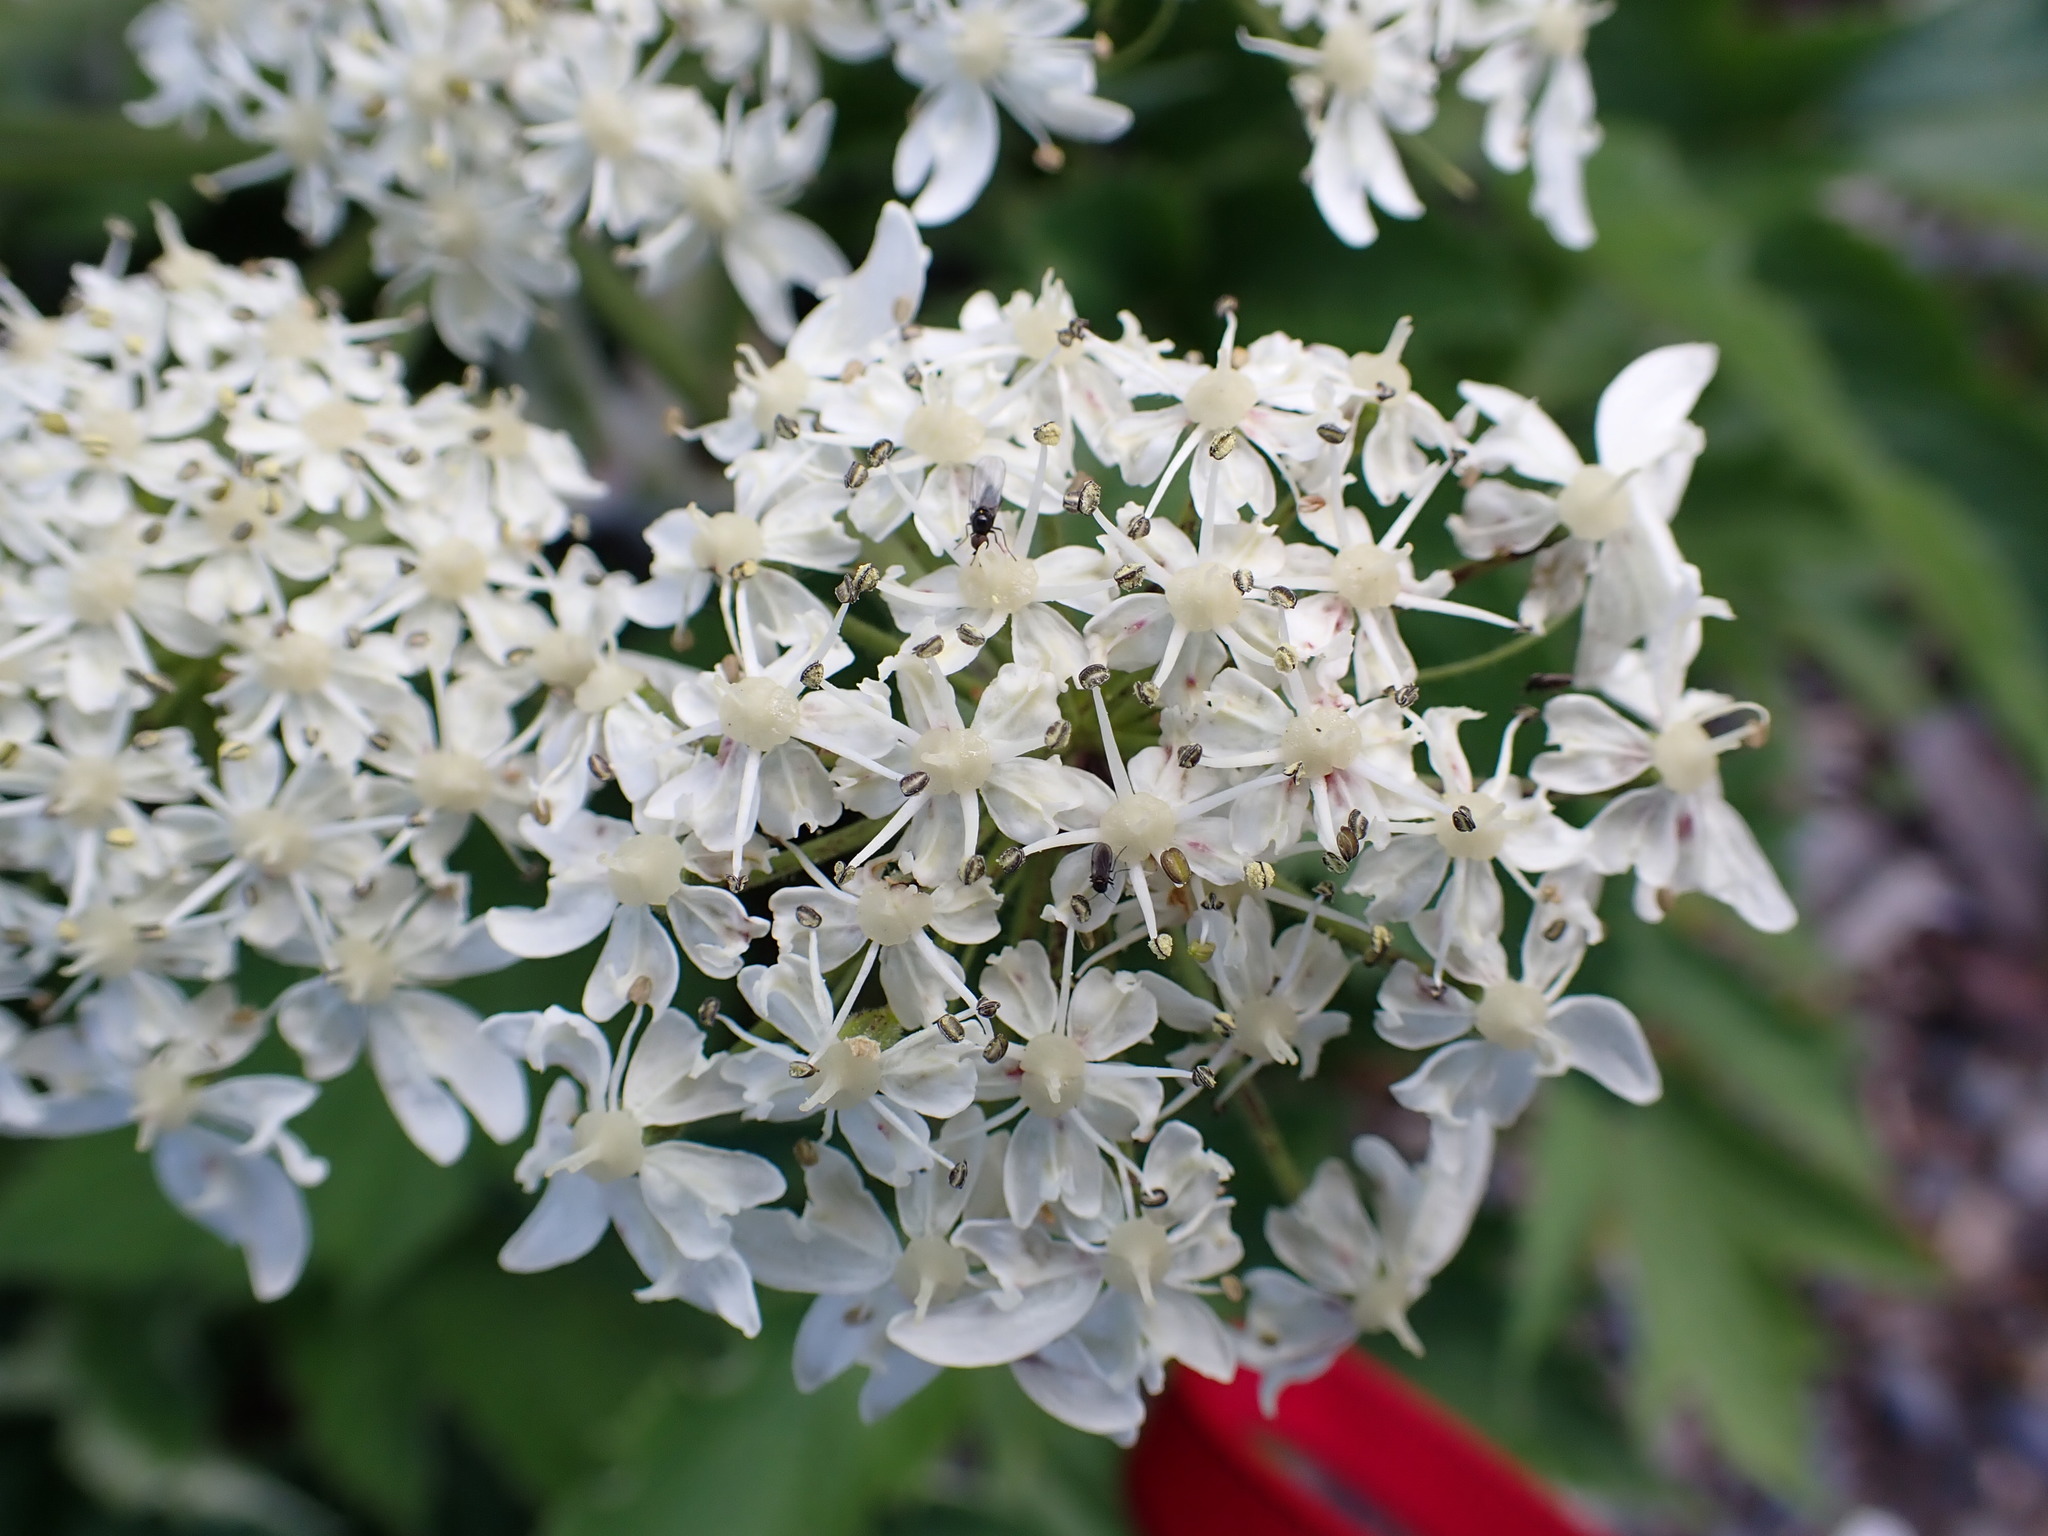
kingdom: Plantae
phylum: Tracheophyta
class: Magnoliopsida
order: Apiales
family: Apiaceae
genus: Heracleum
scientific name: Heracleum maximum
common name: American cow parsnip
